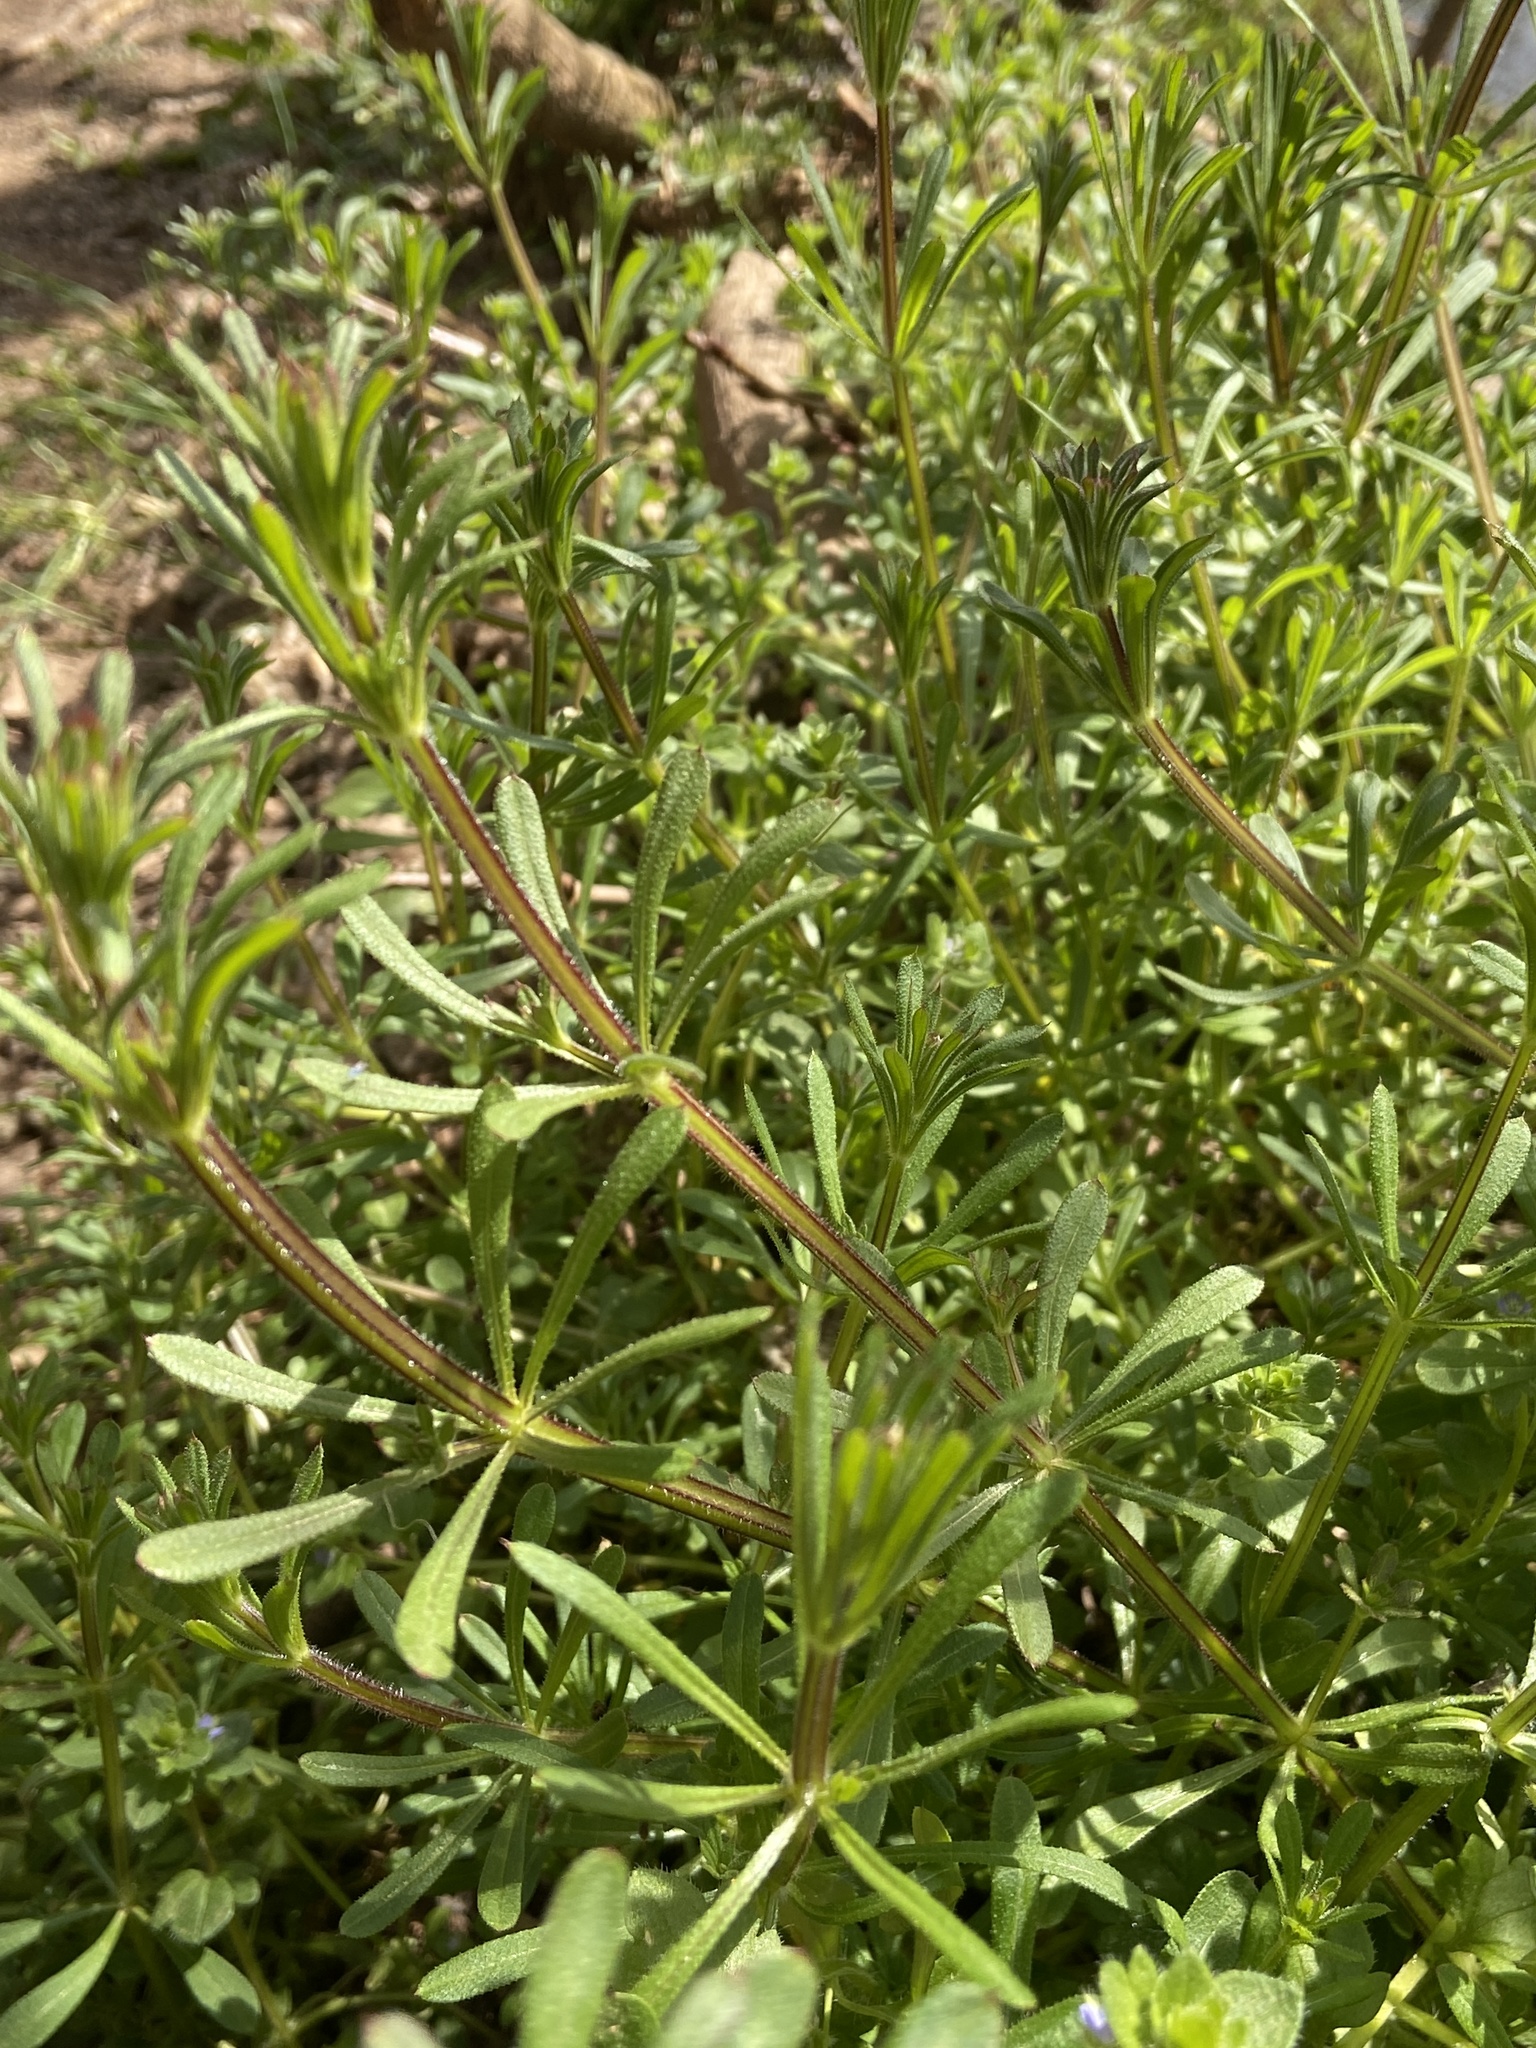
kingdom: Plantae
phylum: Tracheophyta
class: Magnoliopsida
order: Gentianales
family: Rubiaceae
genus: Galium
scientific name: Galium aparine
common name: Cleavers
